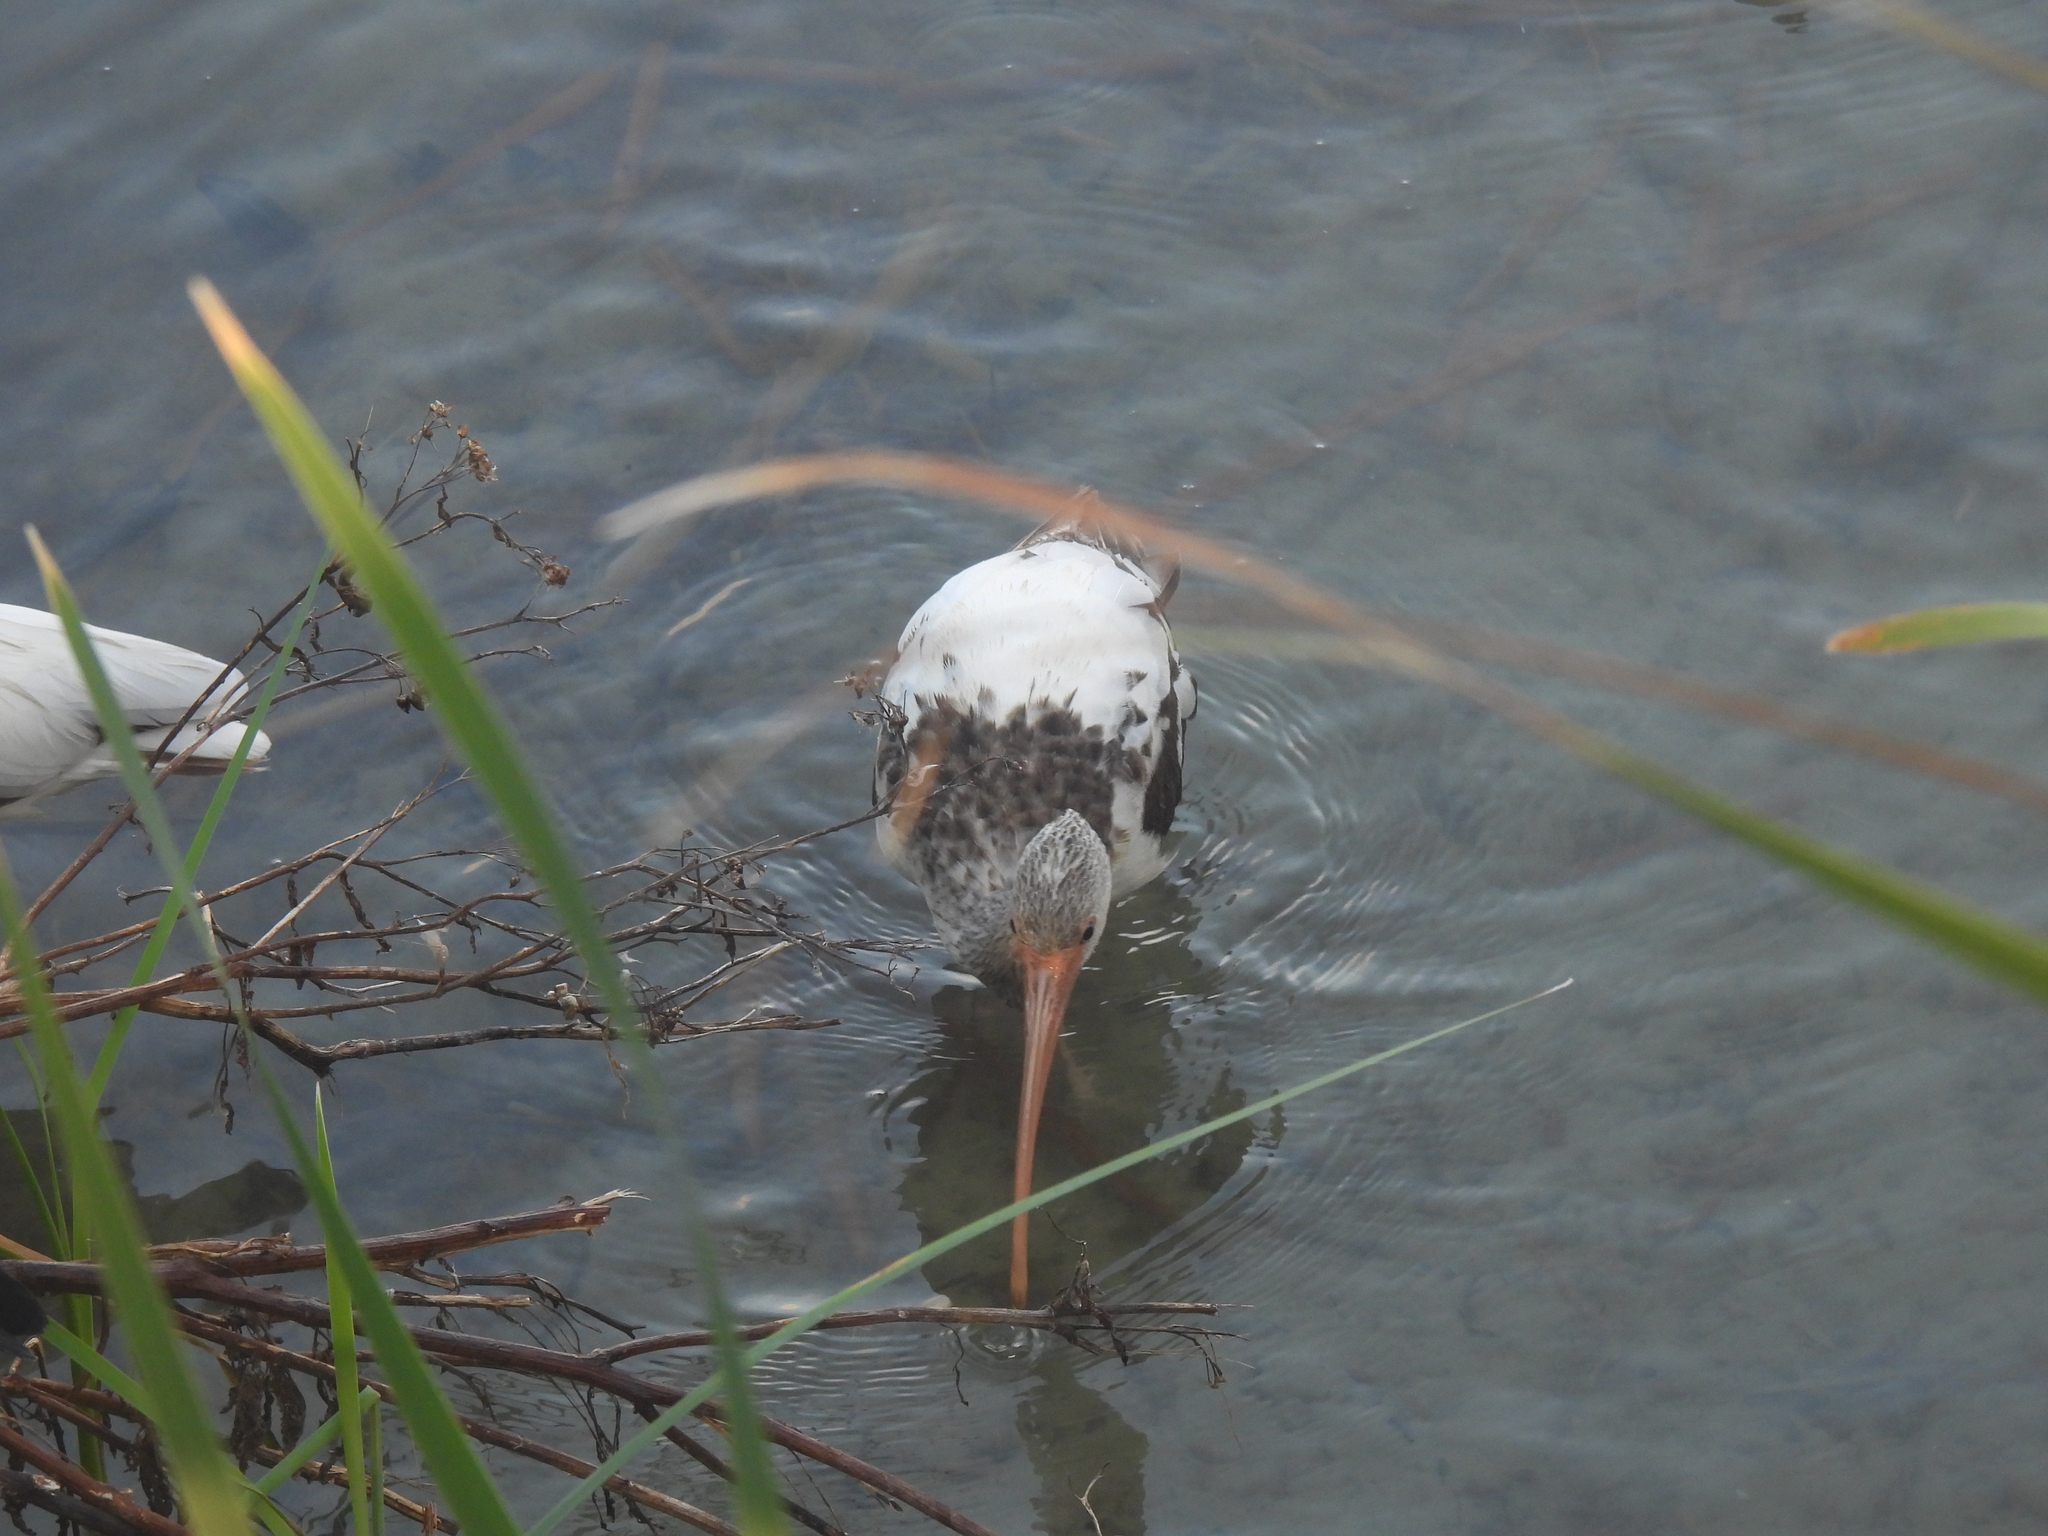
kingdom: Animalia
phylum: Chordata
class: Aves
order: Pelecaniformes
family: Threskiornithidae
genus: Eudocimus
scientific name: Eudocimus albus
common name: White ibis
